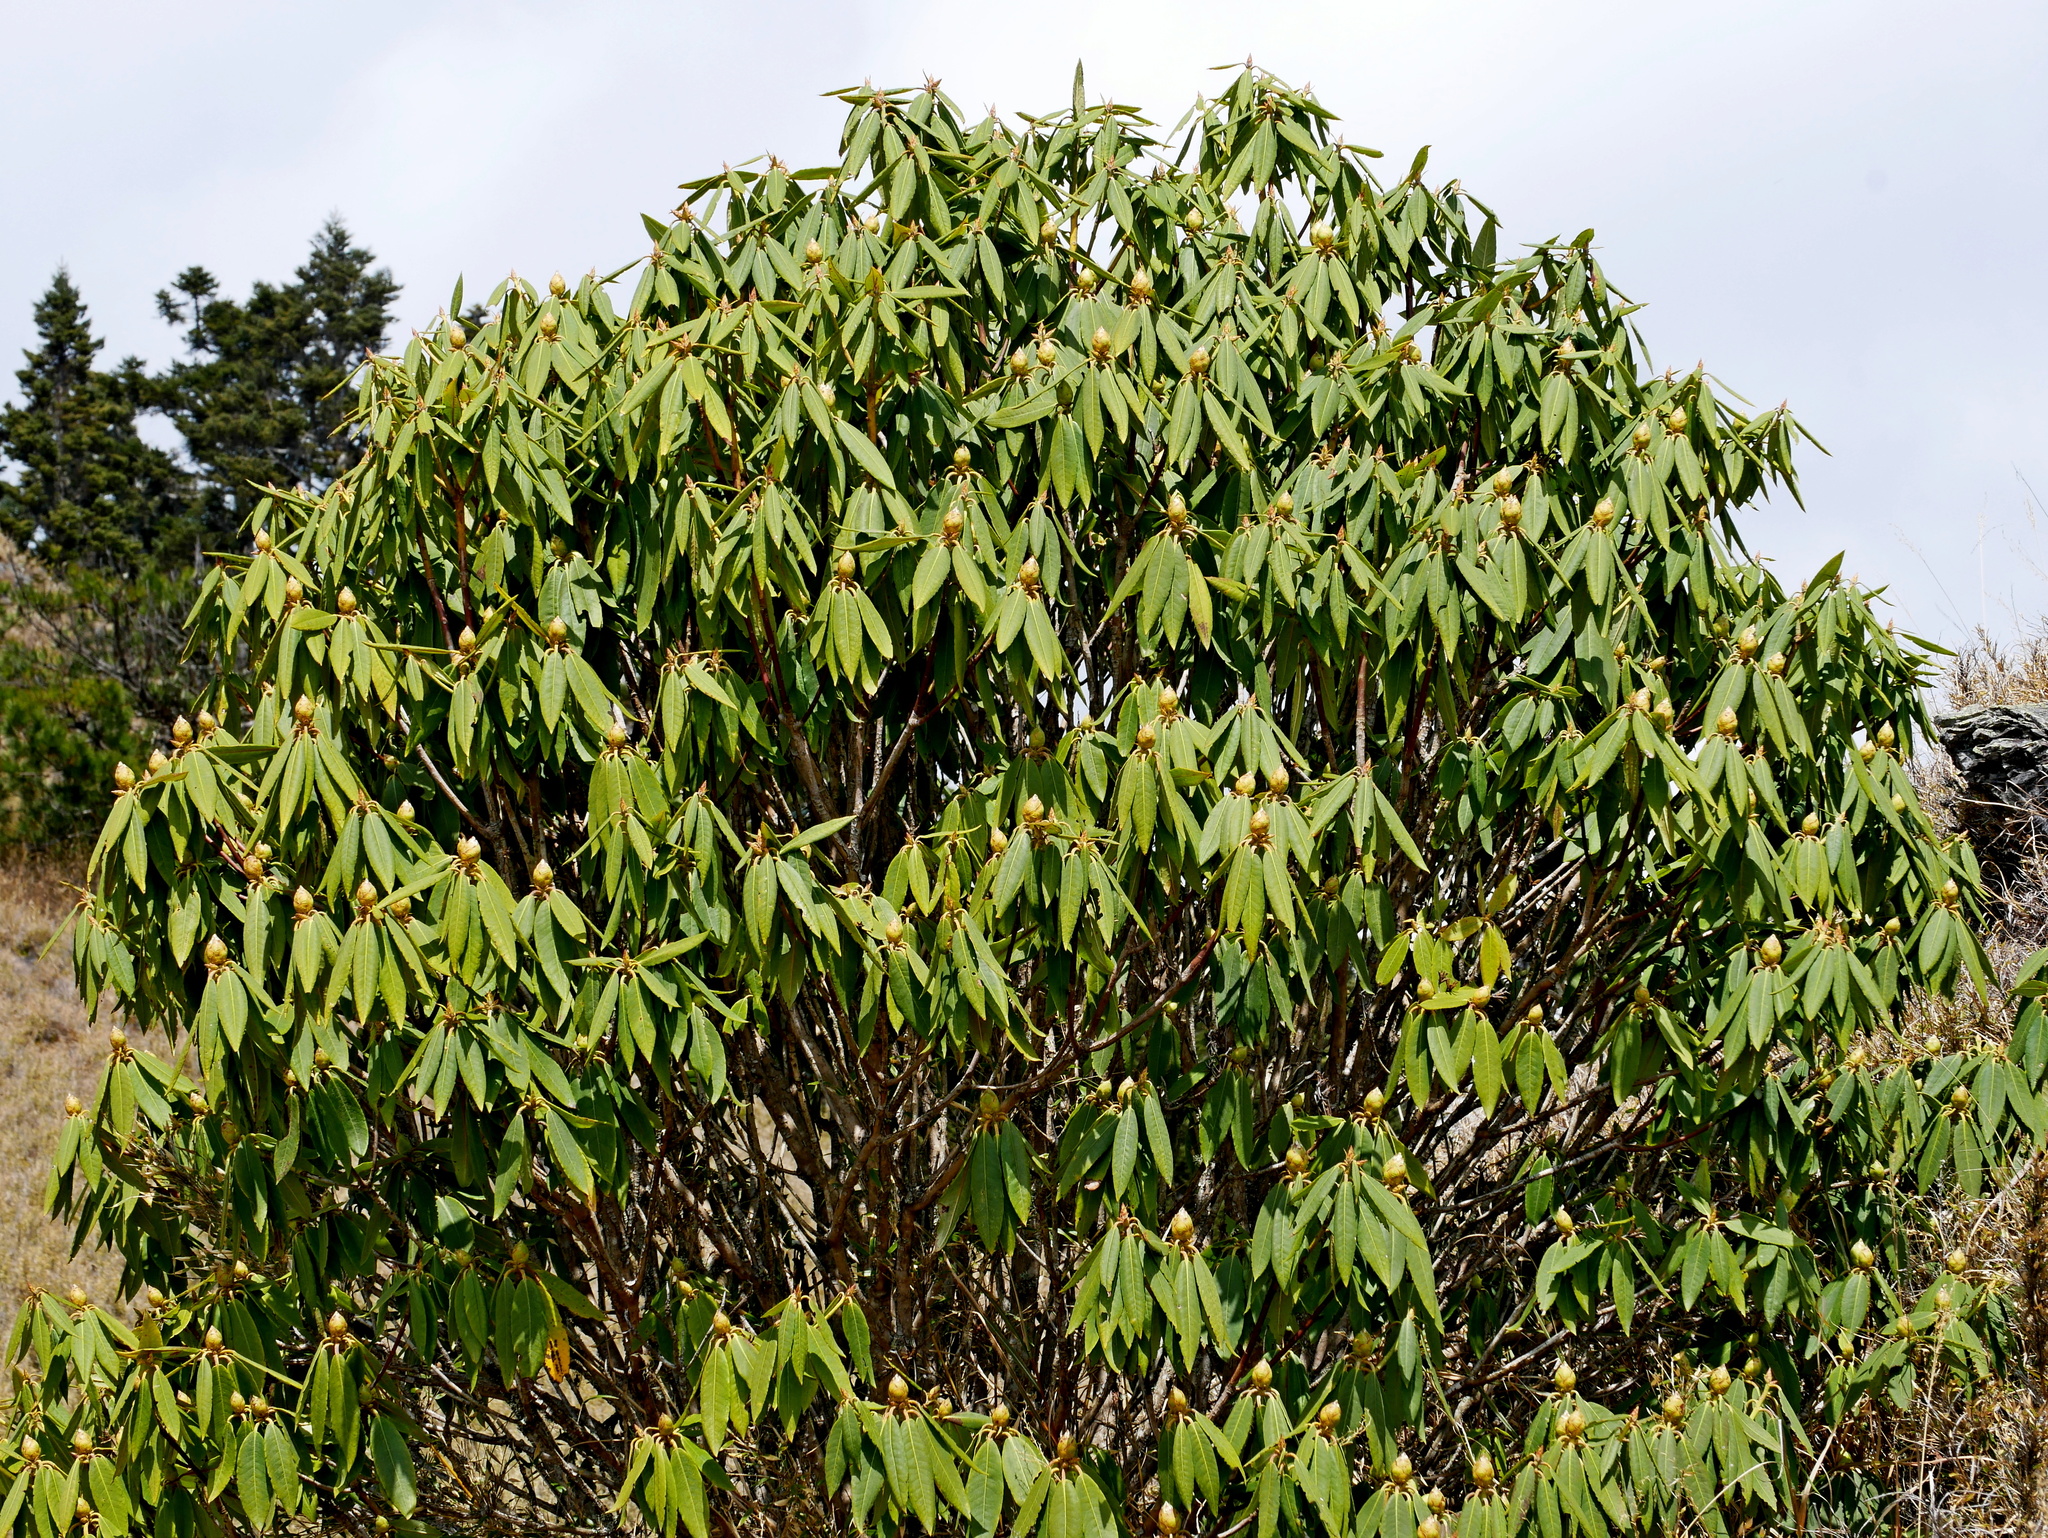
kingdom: Plantae
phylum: Tracheophyta
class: Magnoliopsida
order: Ericales
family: Ericaceae
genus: Rhododendron
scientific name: Rhododendron pseudochrysanthum
